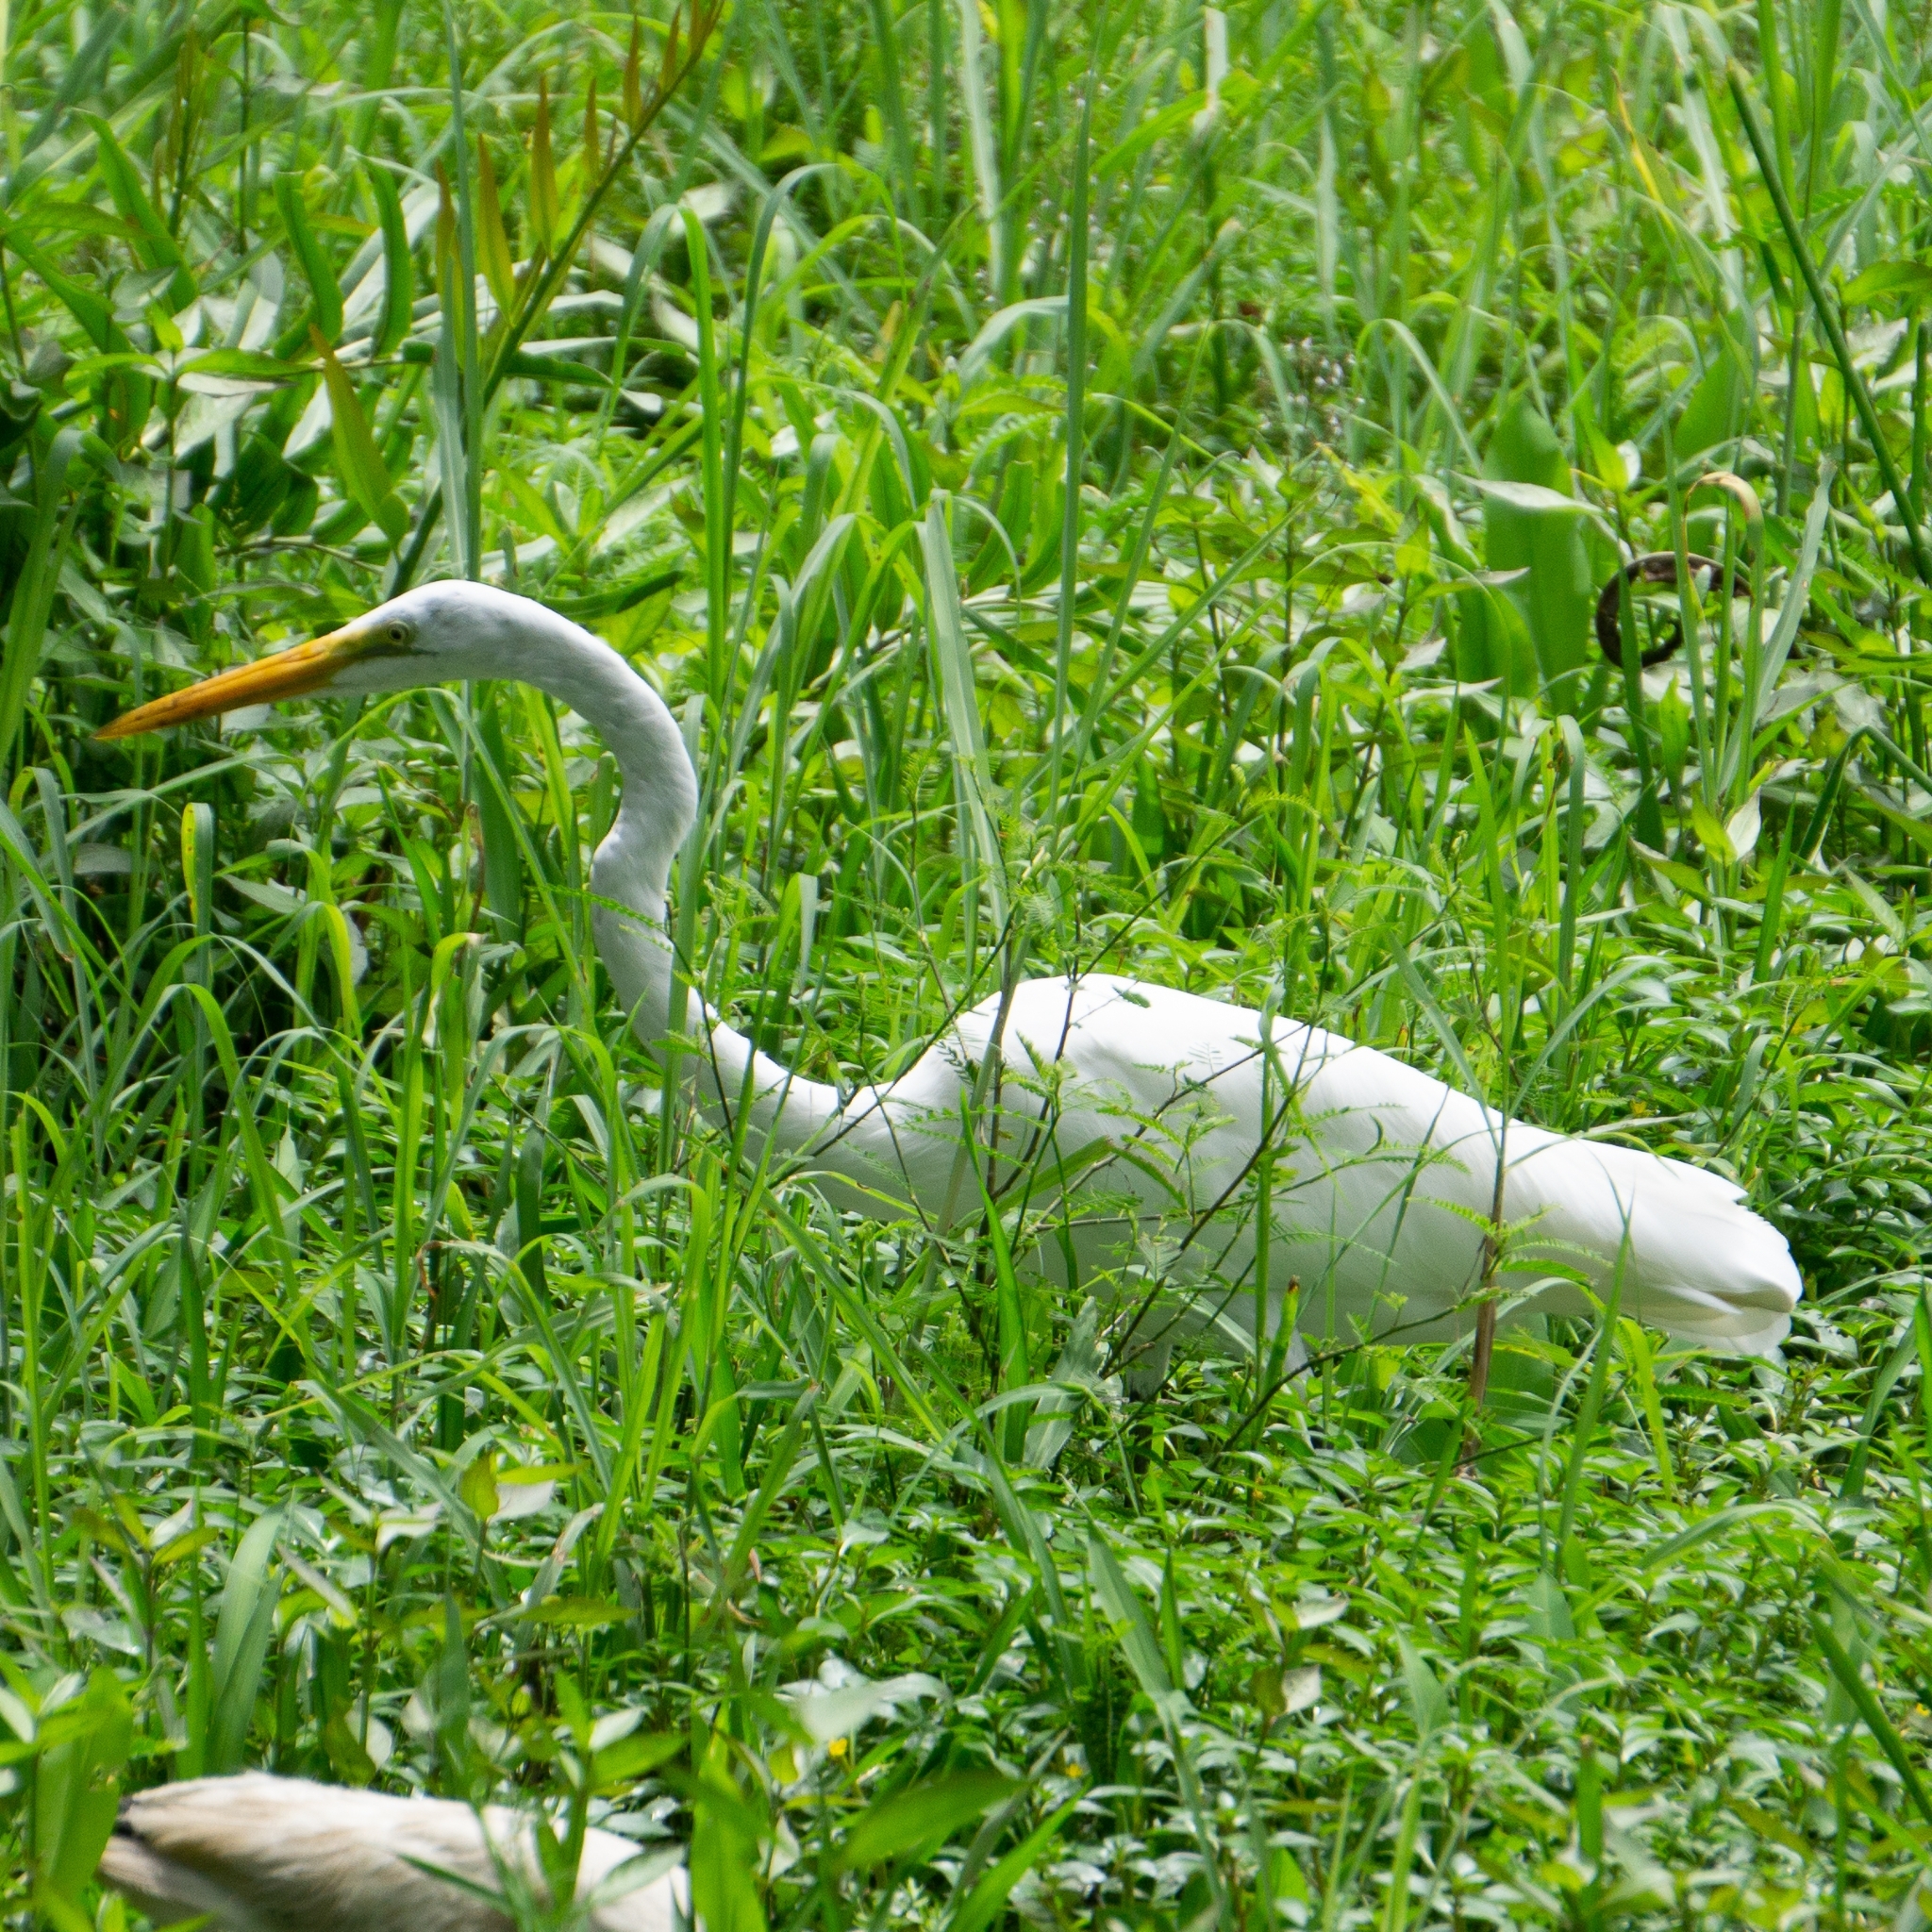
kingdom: Animalia
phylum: Chordata
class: Aves
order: Pelecaniformes
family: Ardeidae
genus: Ardea
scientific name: Ardea alba
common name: Great egret
